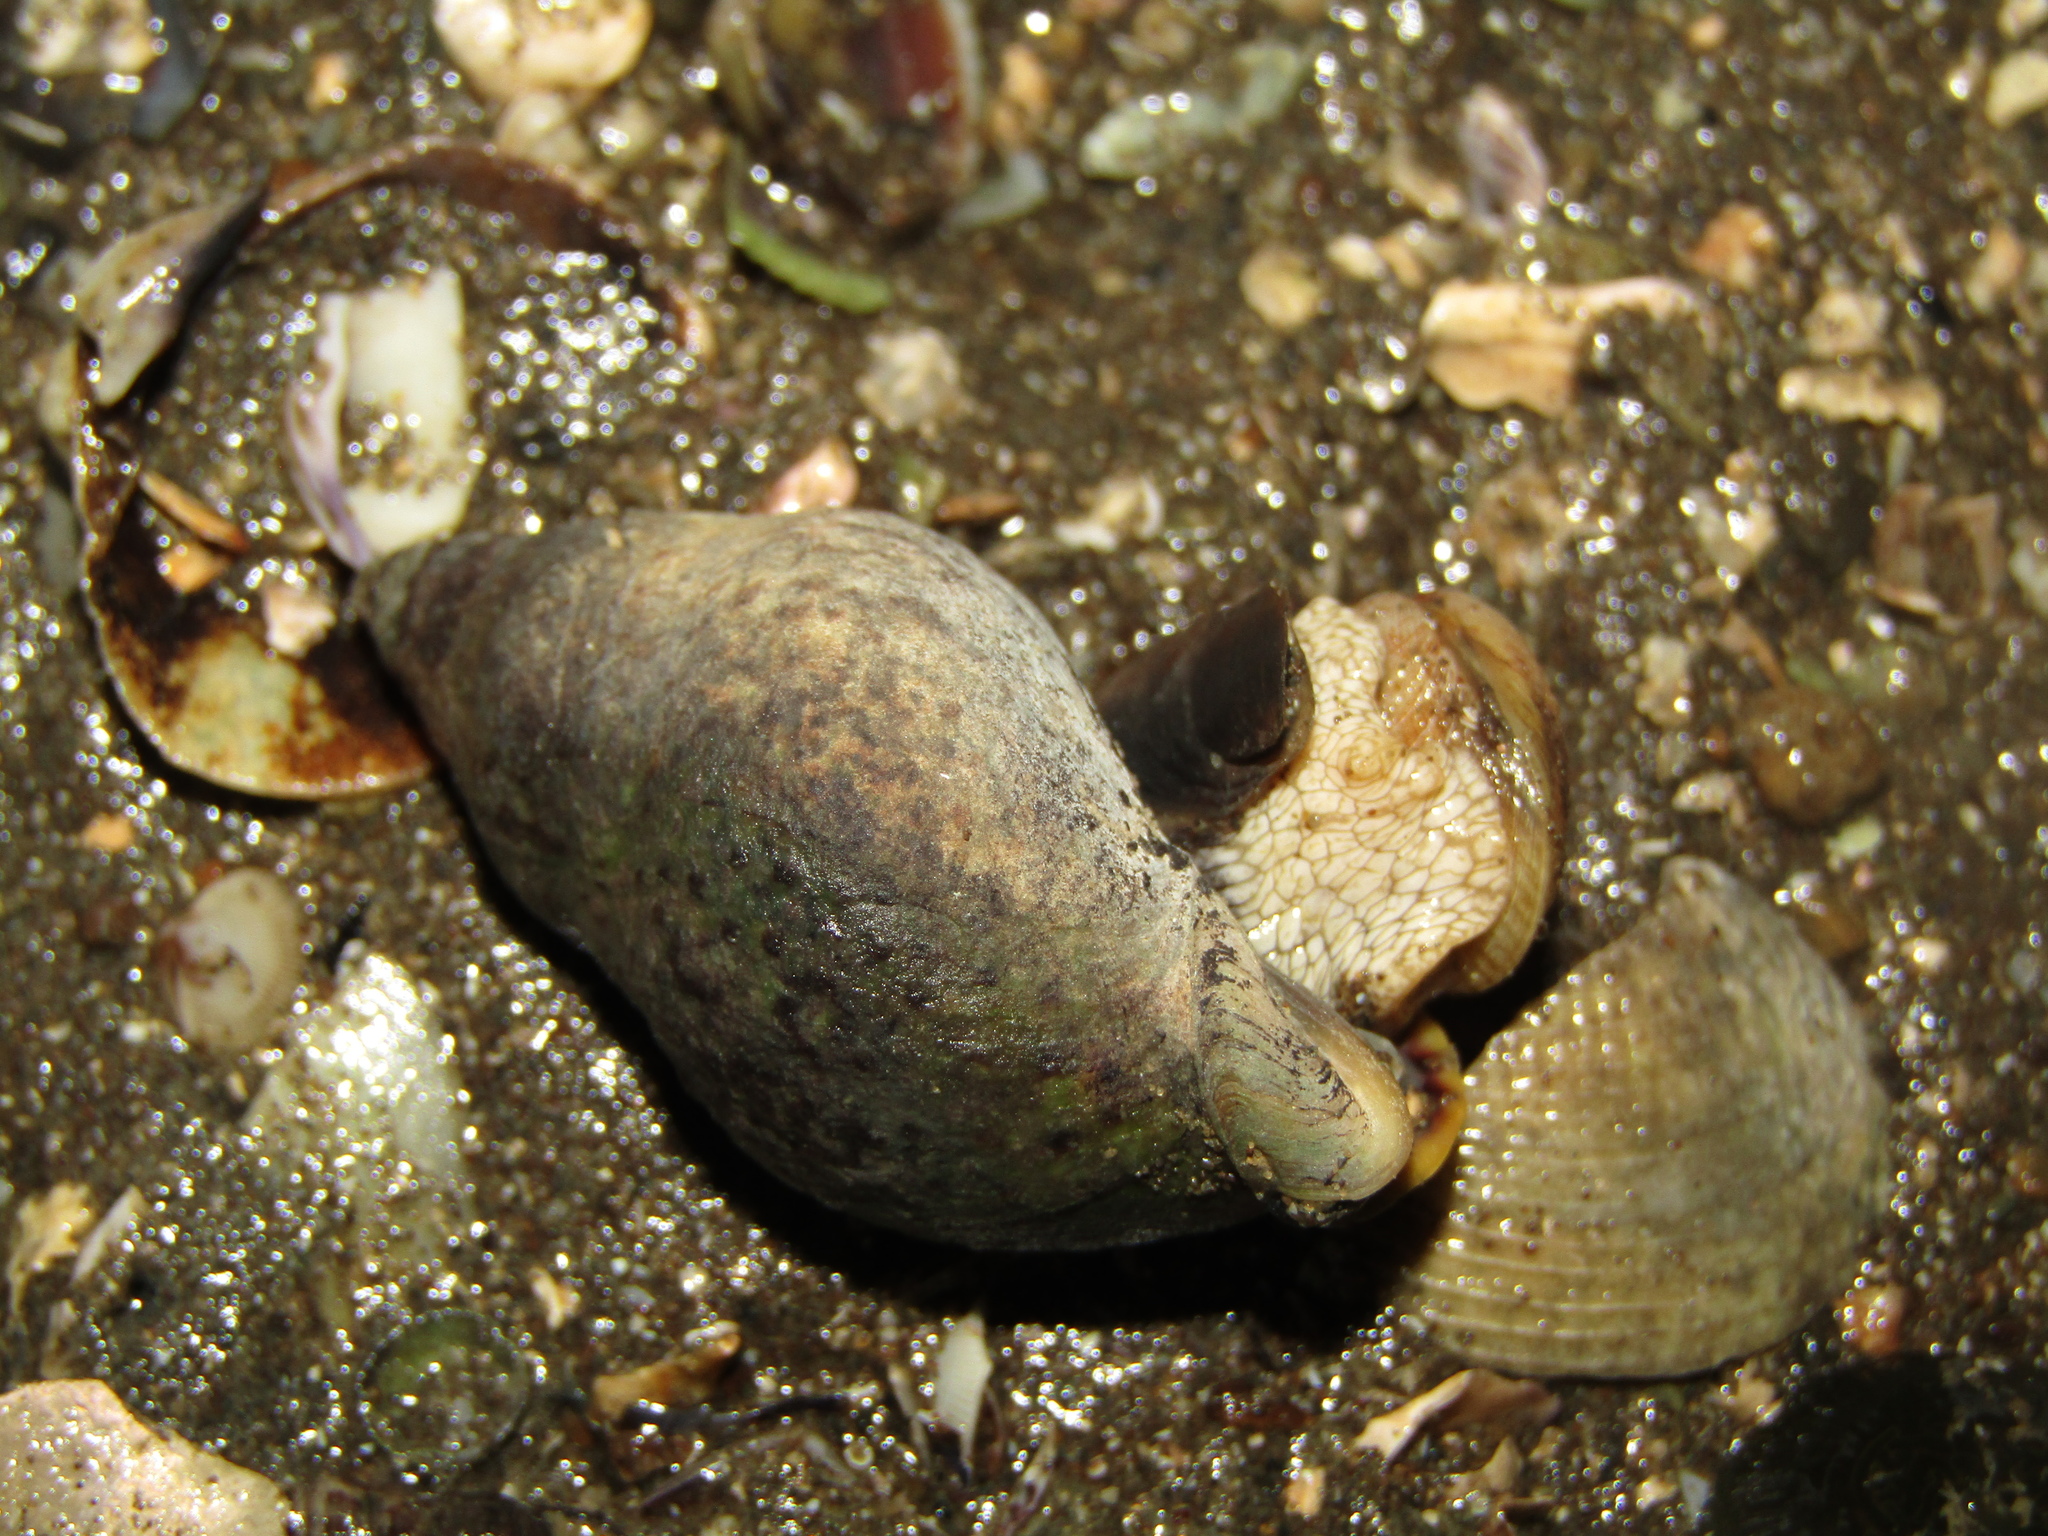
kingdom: Animalia
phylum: Mollusca
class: Gastropoda
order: Neogastropoda
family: Cominellidae
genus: Cominella
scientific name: Cominella maculosa
